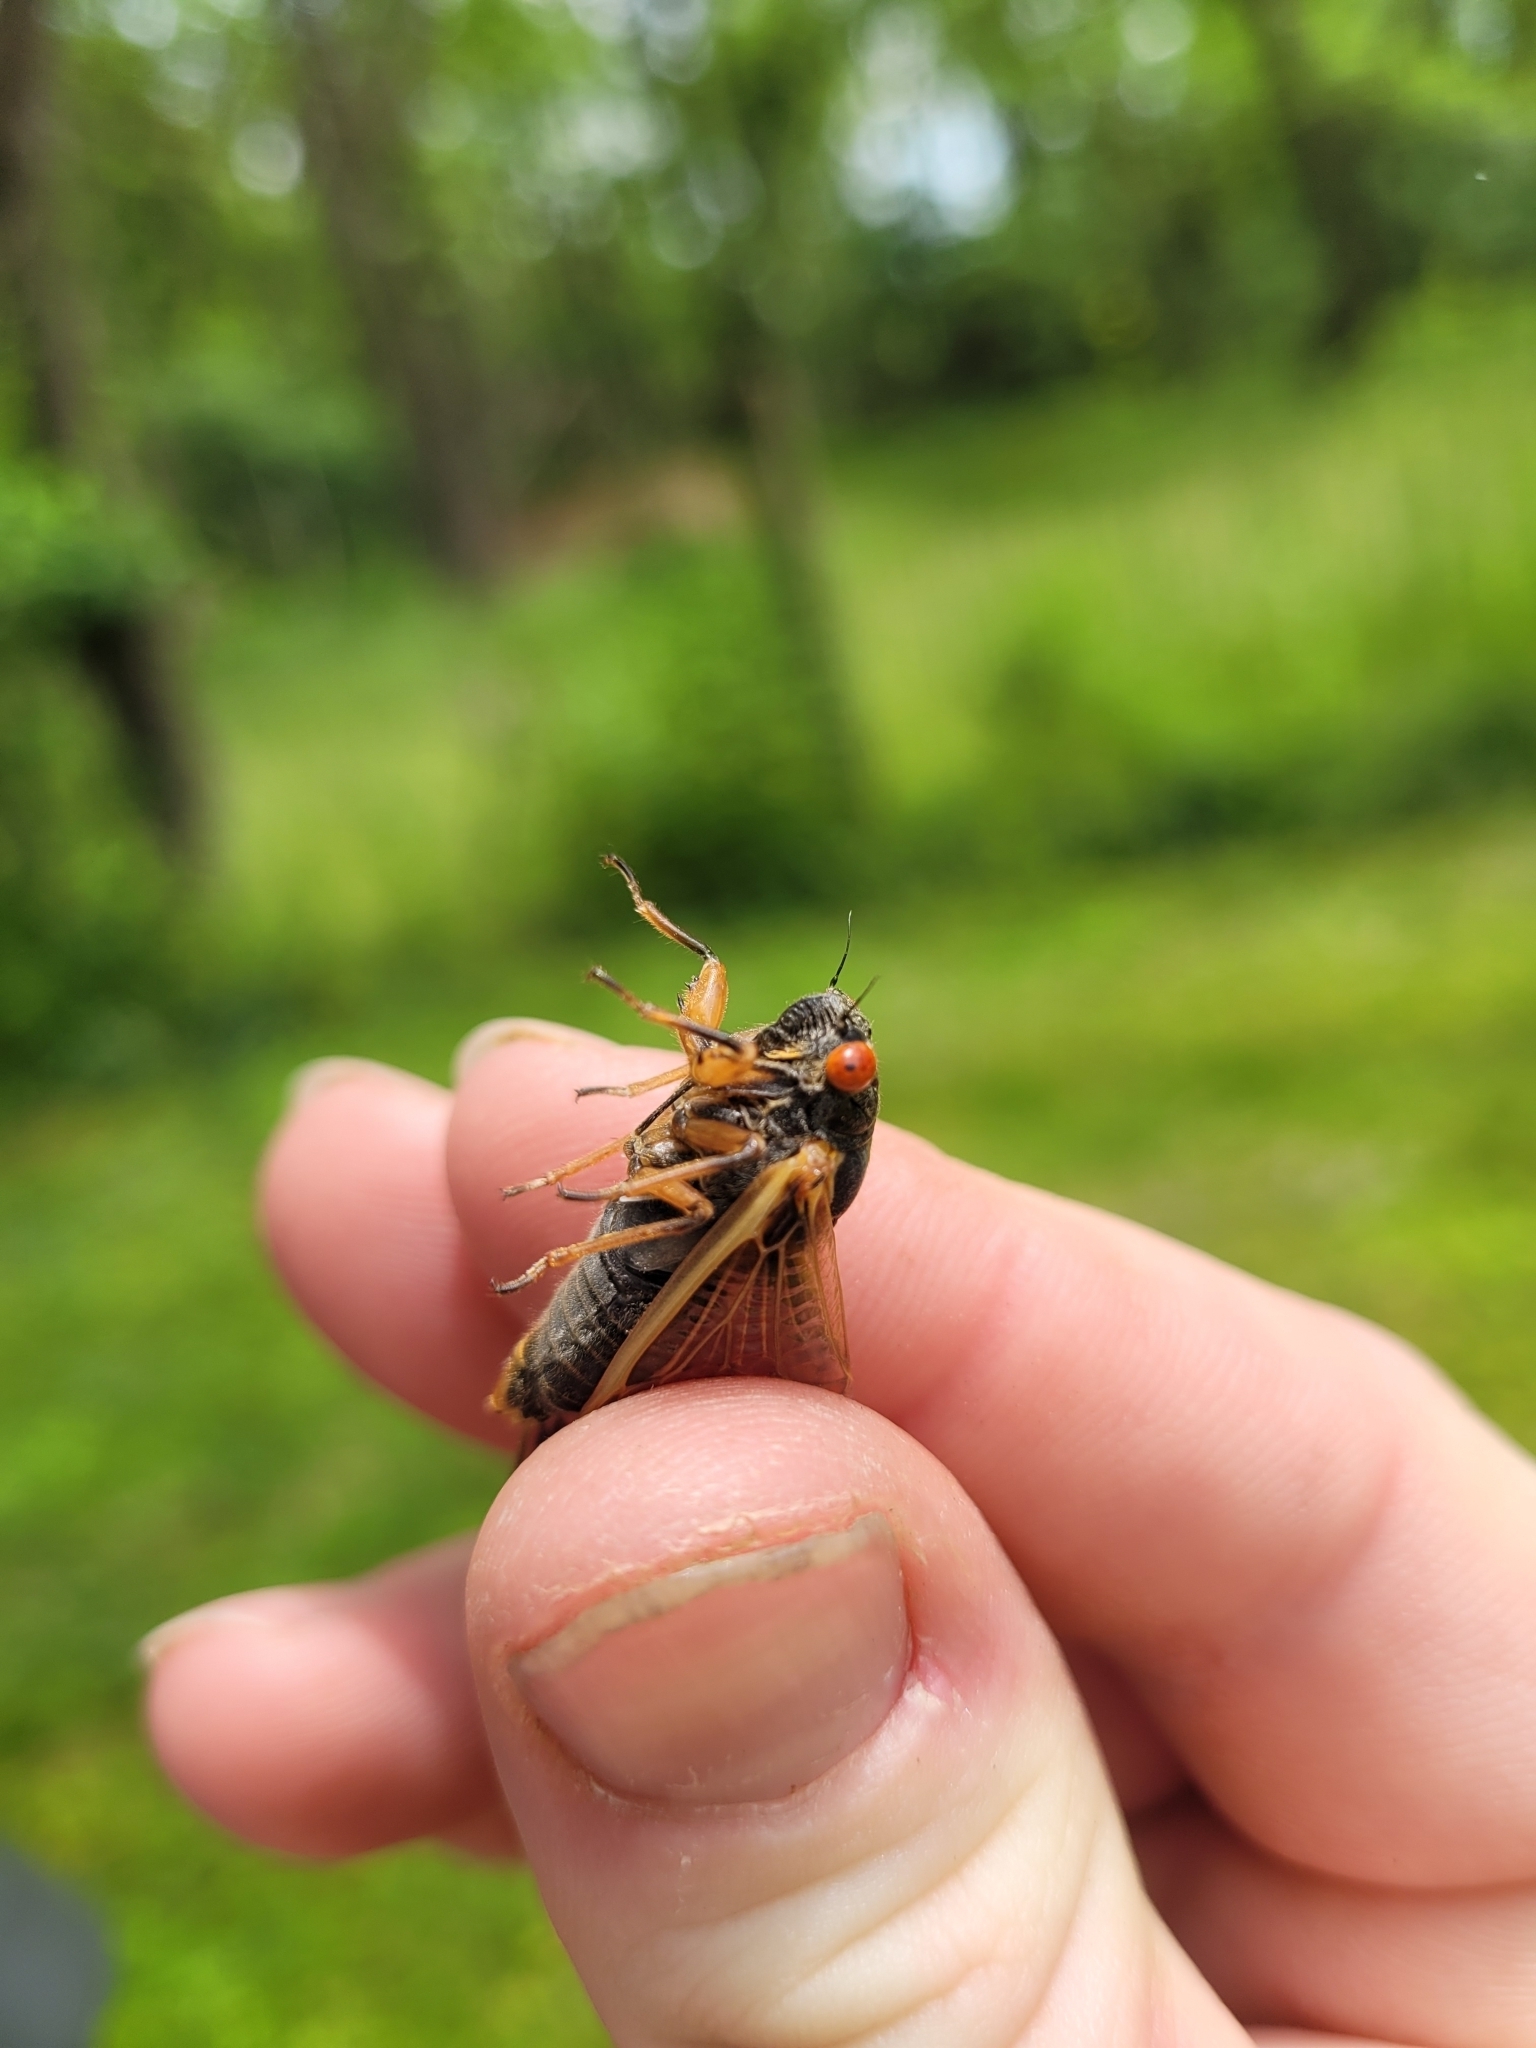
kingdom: Animalia
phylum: Arthropoda
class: Insecta
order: Hemiptera
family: Cicadidae
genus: Magicicada
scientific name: Magicicada cassini
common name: Cassin's 17-year cicada
